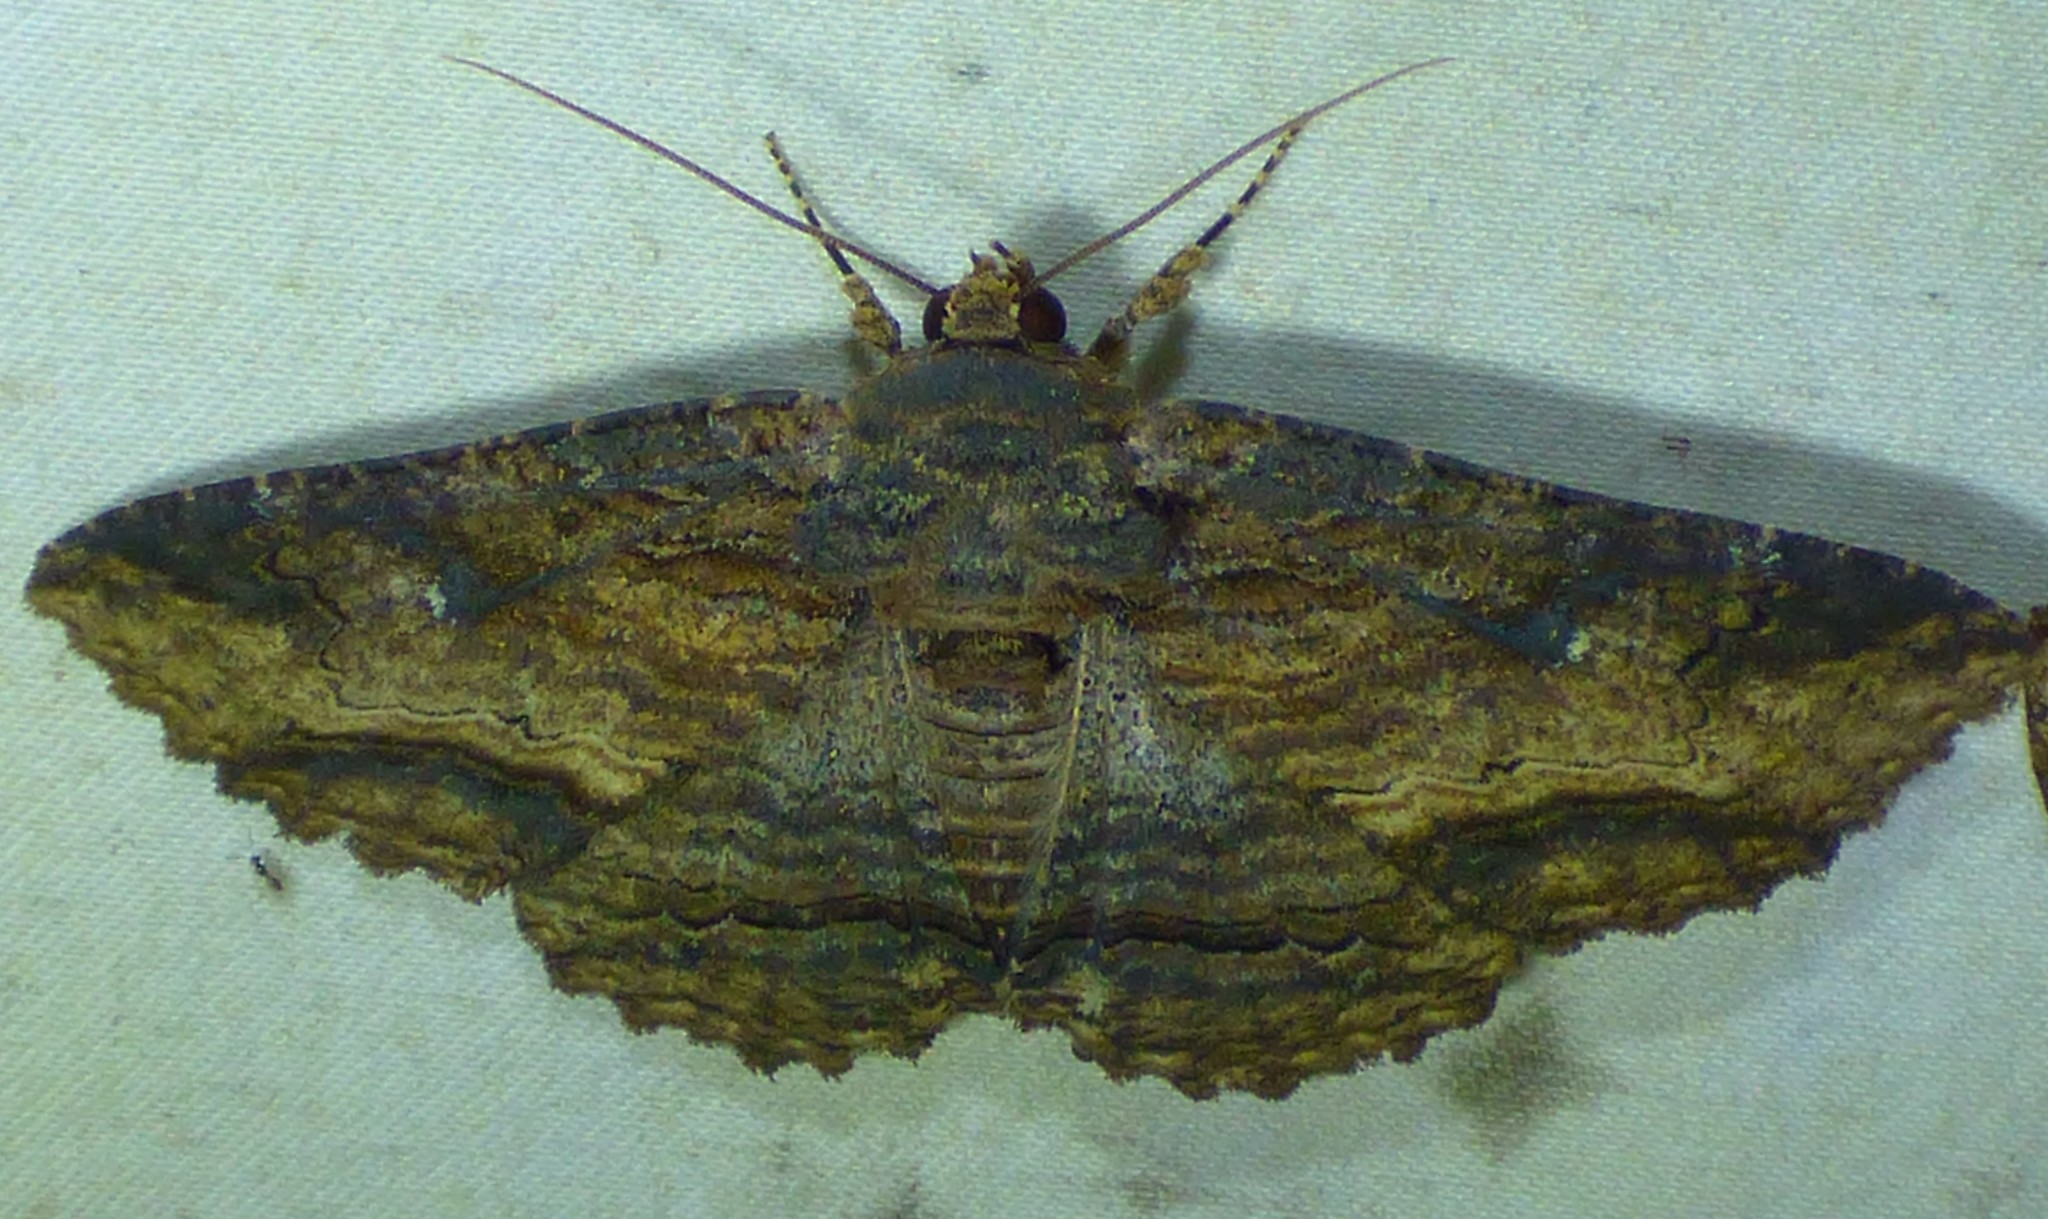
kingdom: Animalia
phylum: Arthropoda
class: Insecta
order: Lepidoptera
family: Erebidae
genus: Zale
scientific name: Zale lunata
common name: Lunate zale moth
